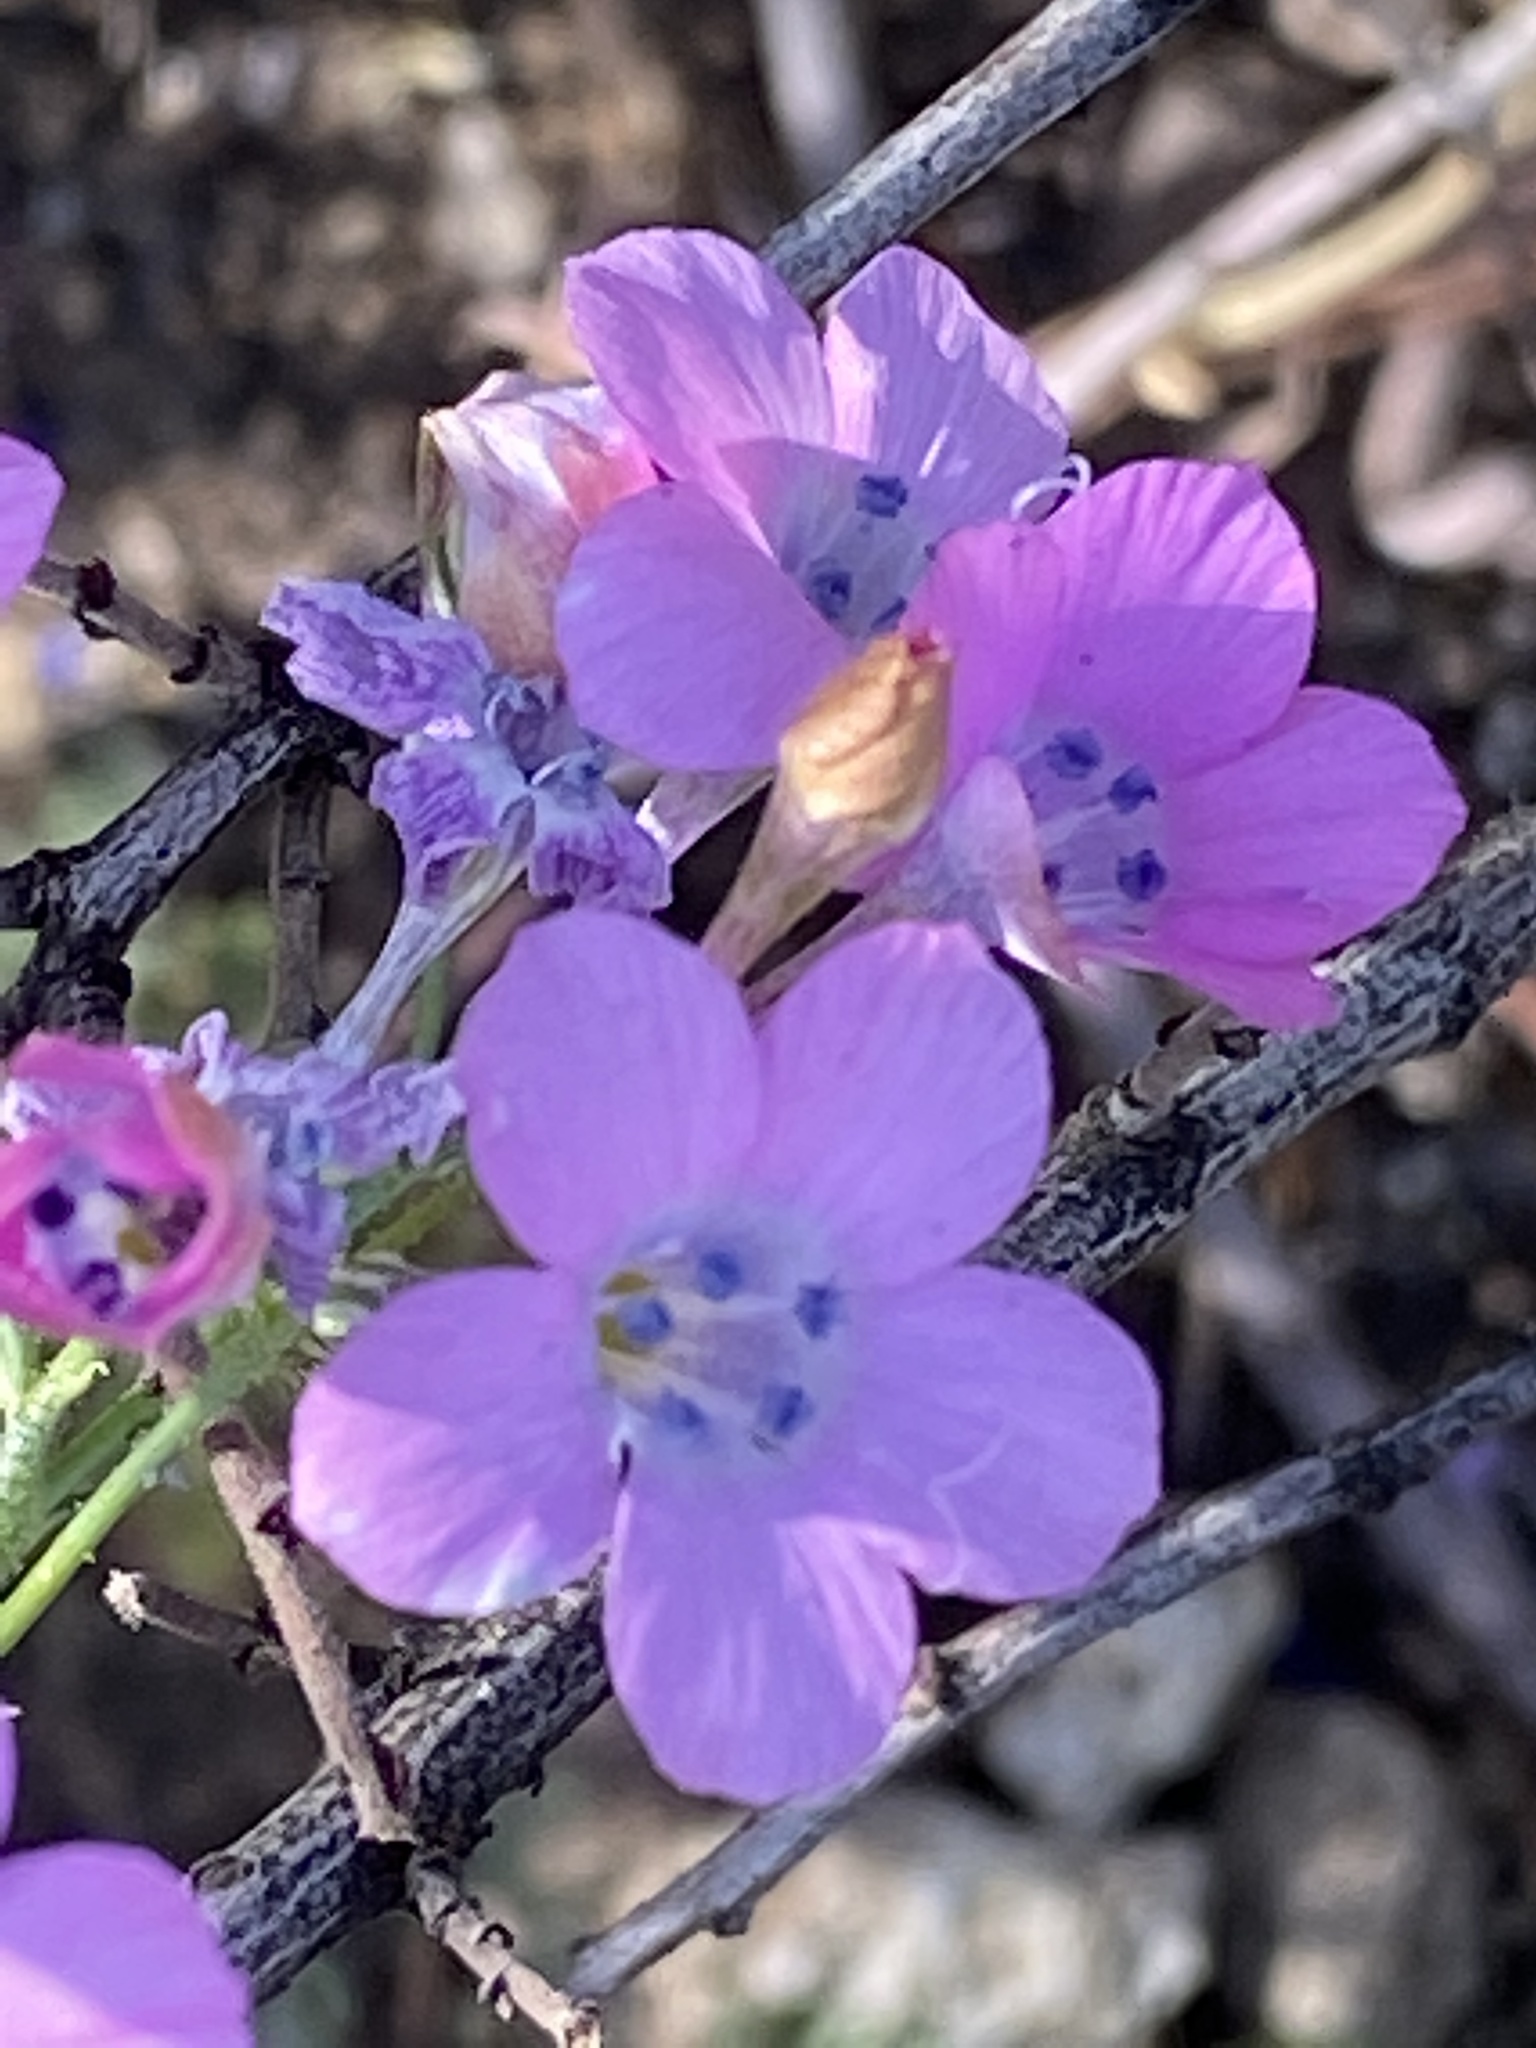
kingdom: Plantae
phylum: Tracheophyta
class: Magnoliopsida
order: Ericales
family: Polemoniaceae
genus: Saltugilia
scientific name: Saltugilia splendens
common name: Grinnell's gilia
